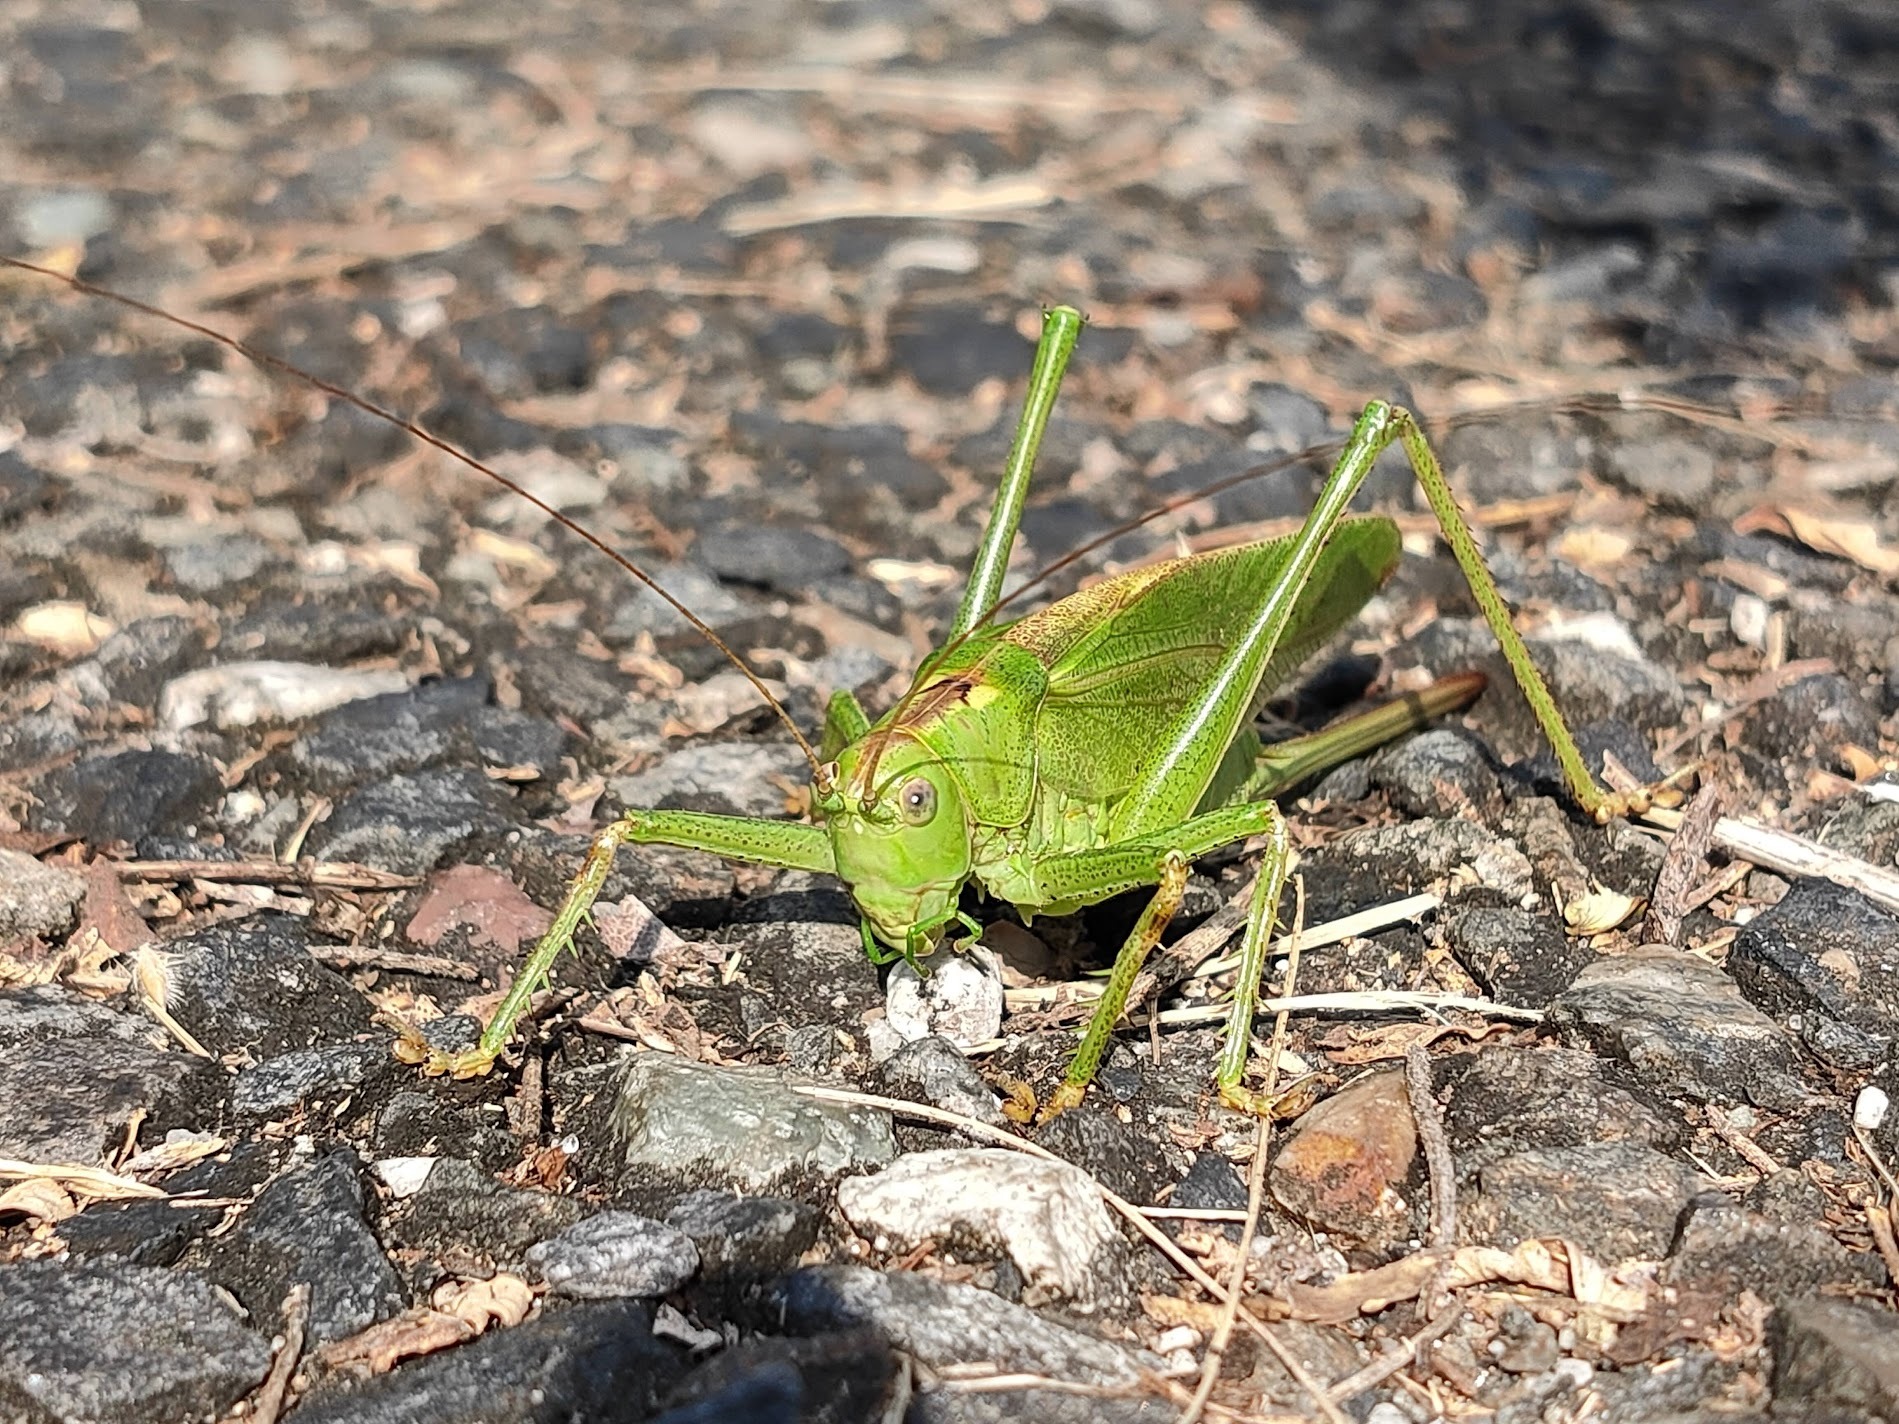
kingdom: Animalia
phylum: Arthropoda
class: Insecta
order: Orthoptera
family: Tettigoniidae
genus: Tettigonia
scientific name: Tettigonia orientalis
